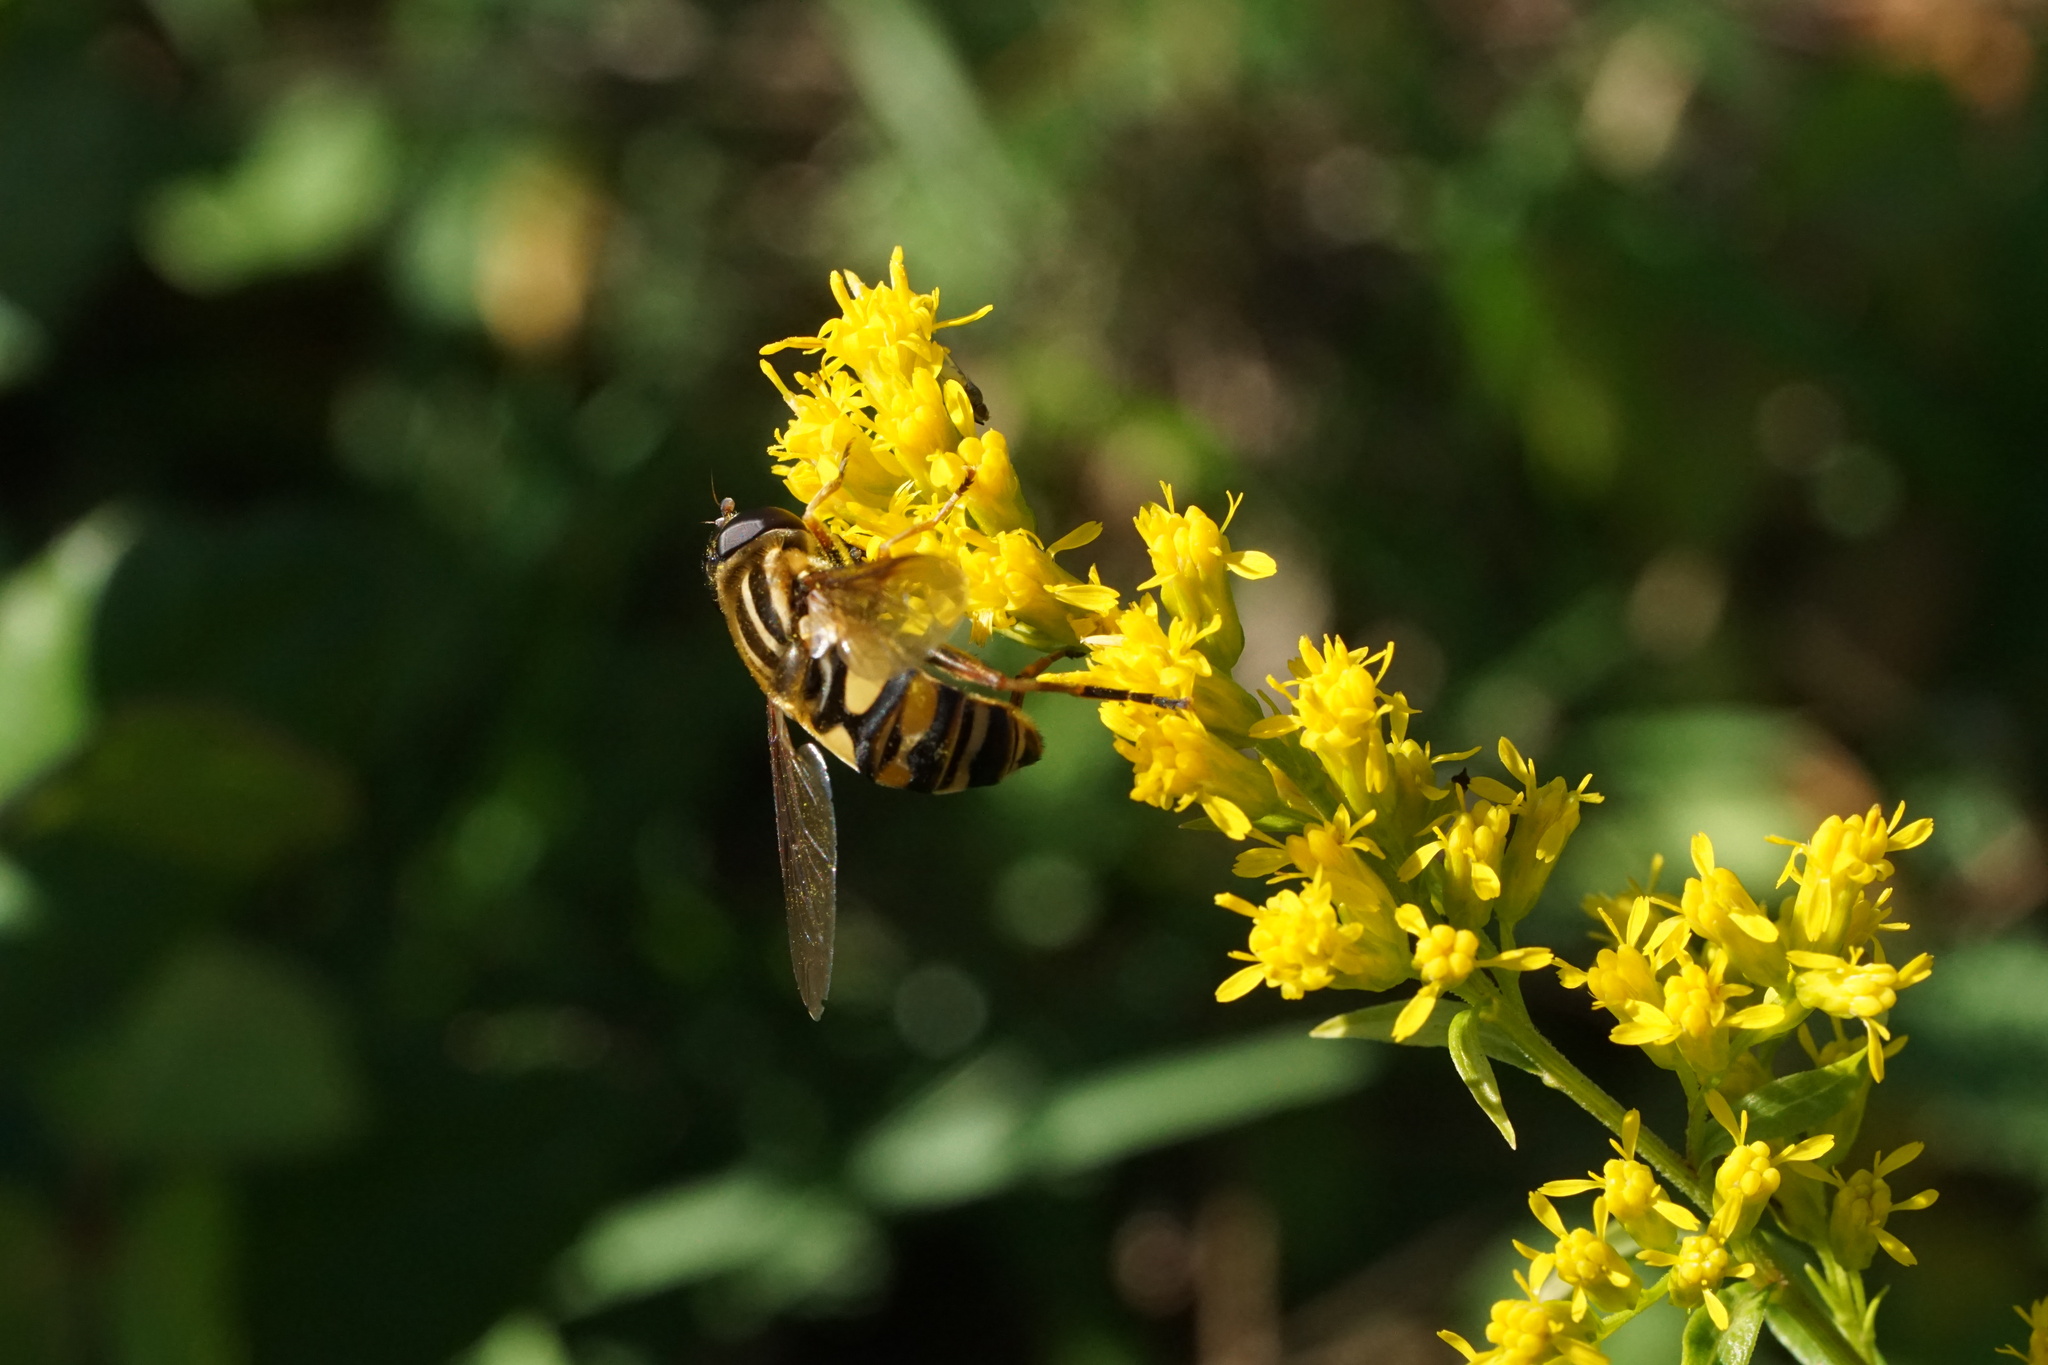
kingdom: Animalia
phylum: Arthropoda
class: Insecta
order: Diptera
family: Syrphidae
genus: Helophilus
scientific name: Helophilus fasciatus
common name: Narrow-headed marsh fly
